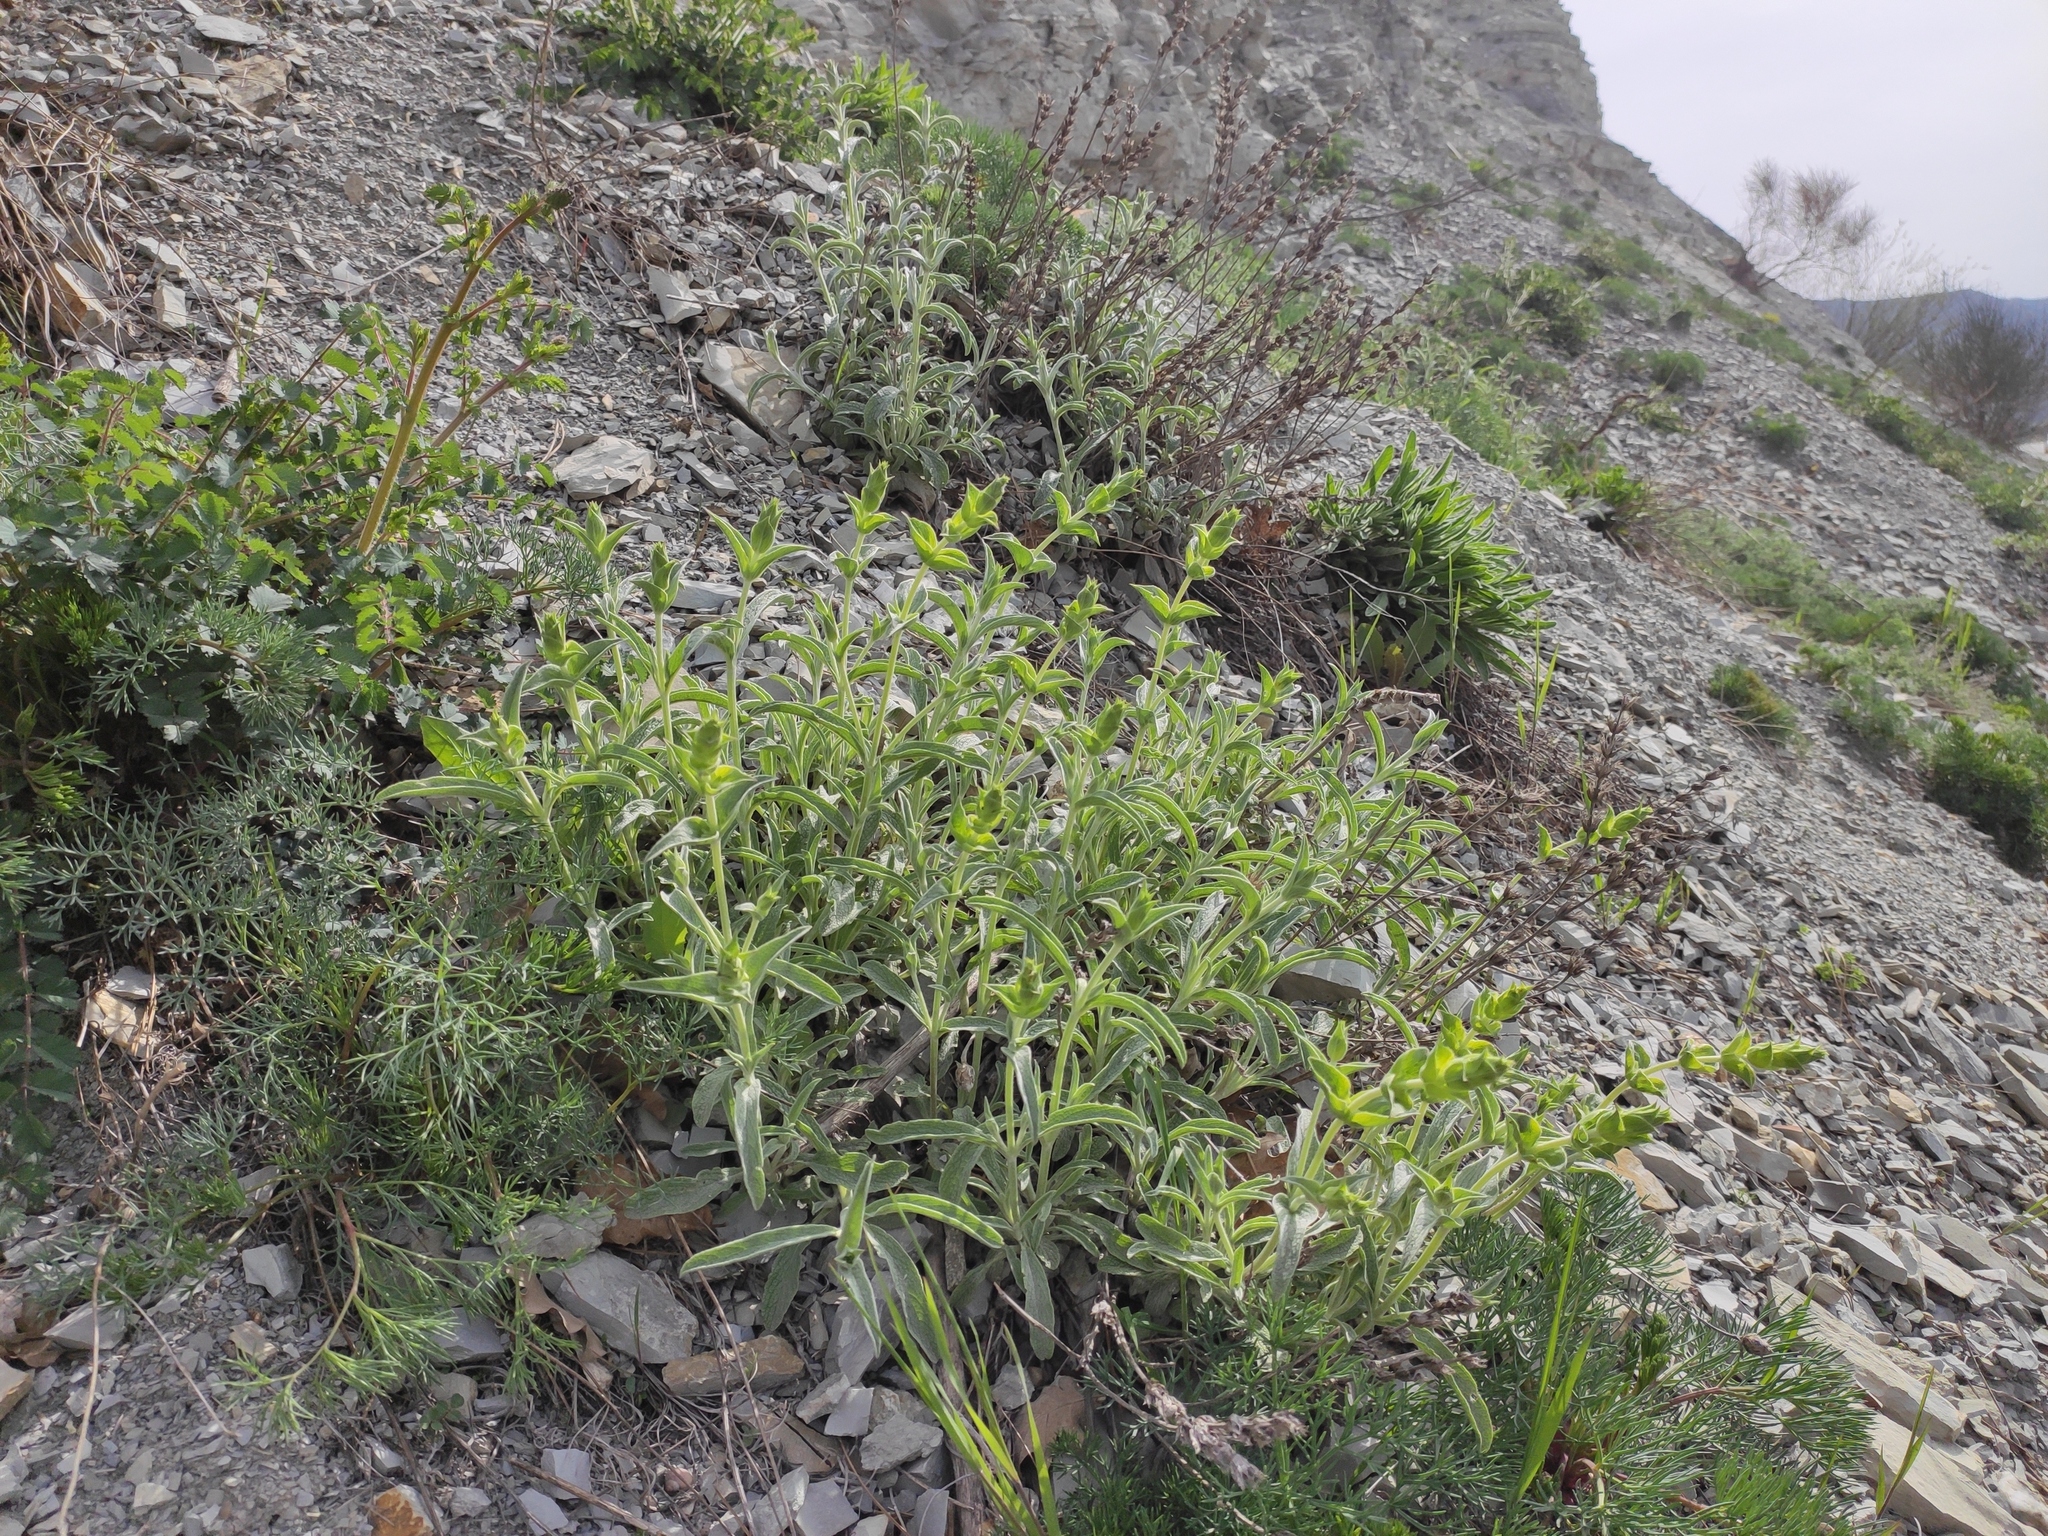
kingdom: Plantae
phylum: Tracheophyta
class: Magnoliopsida
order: Lamiales
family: Lamiaceae
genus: Sideritis
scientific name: Sideritis euxina
